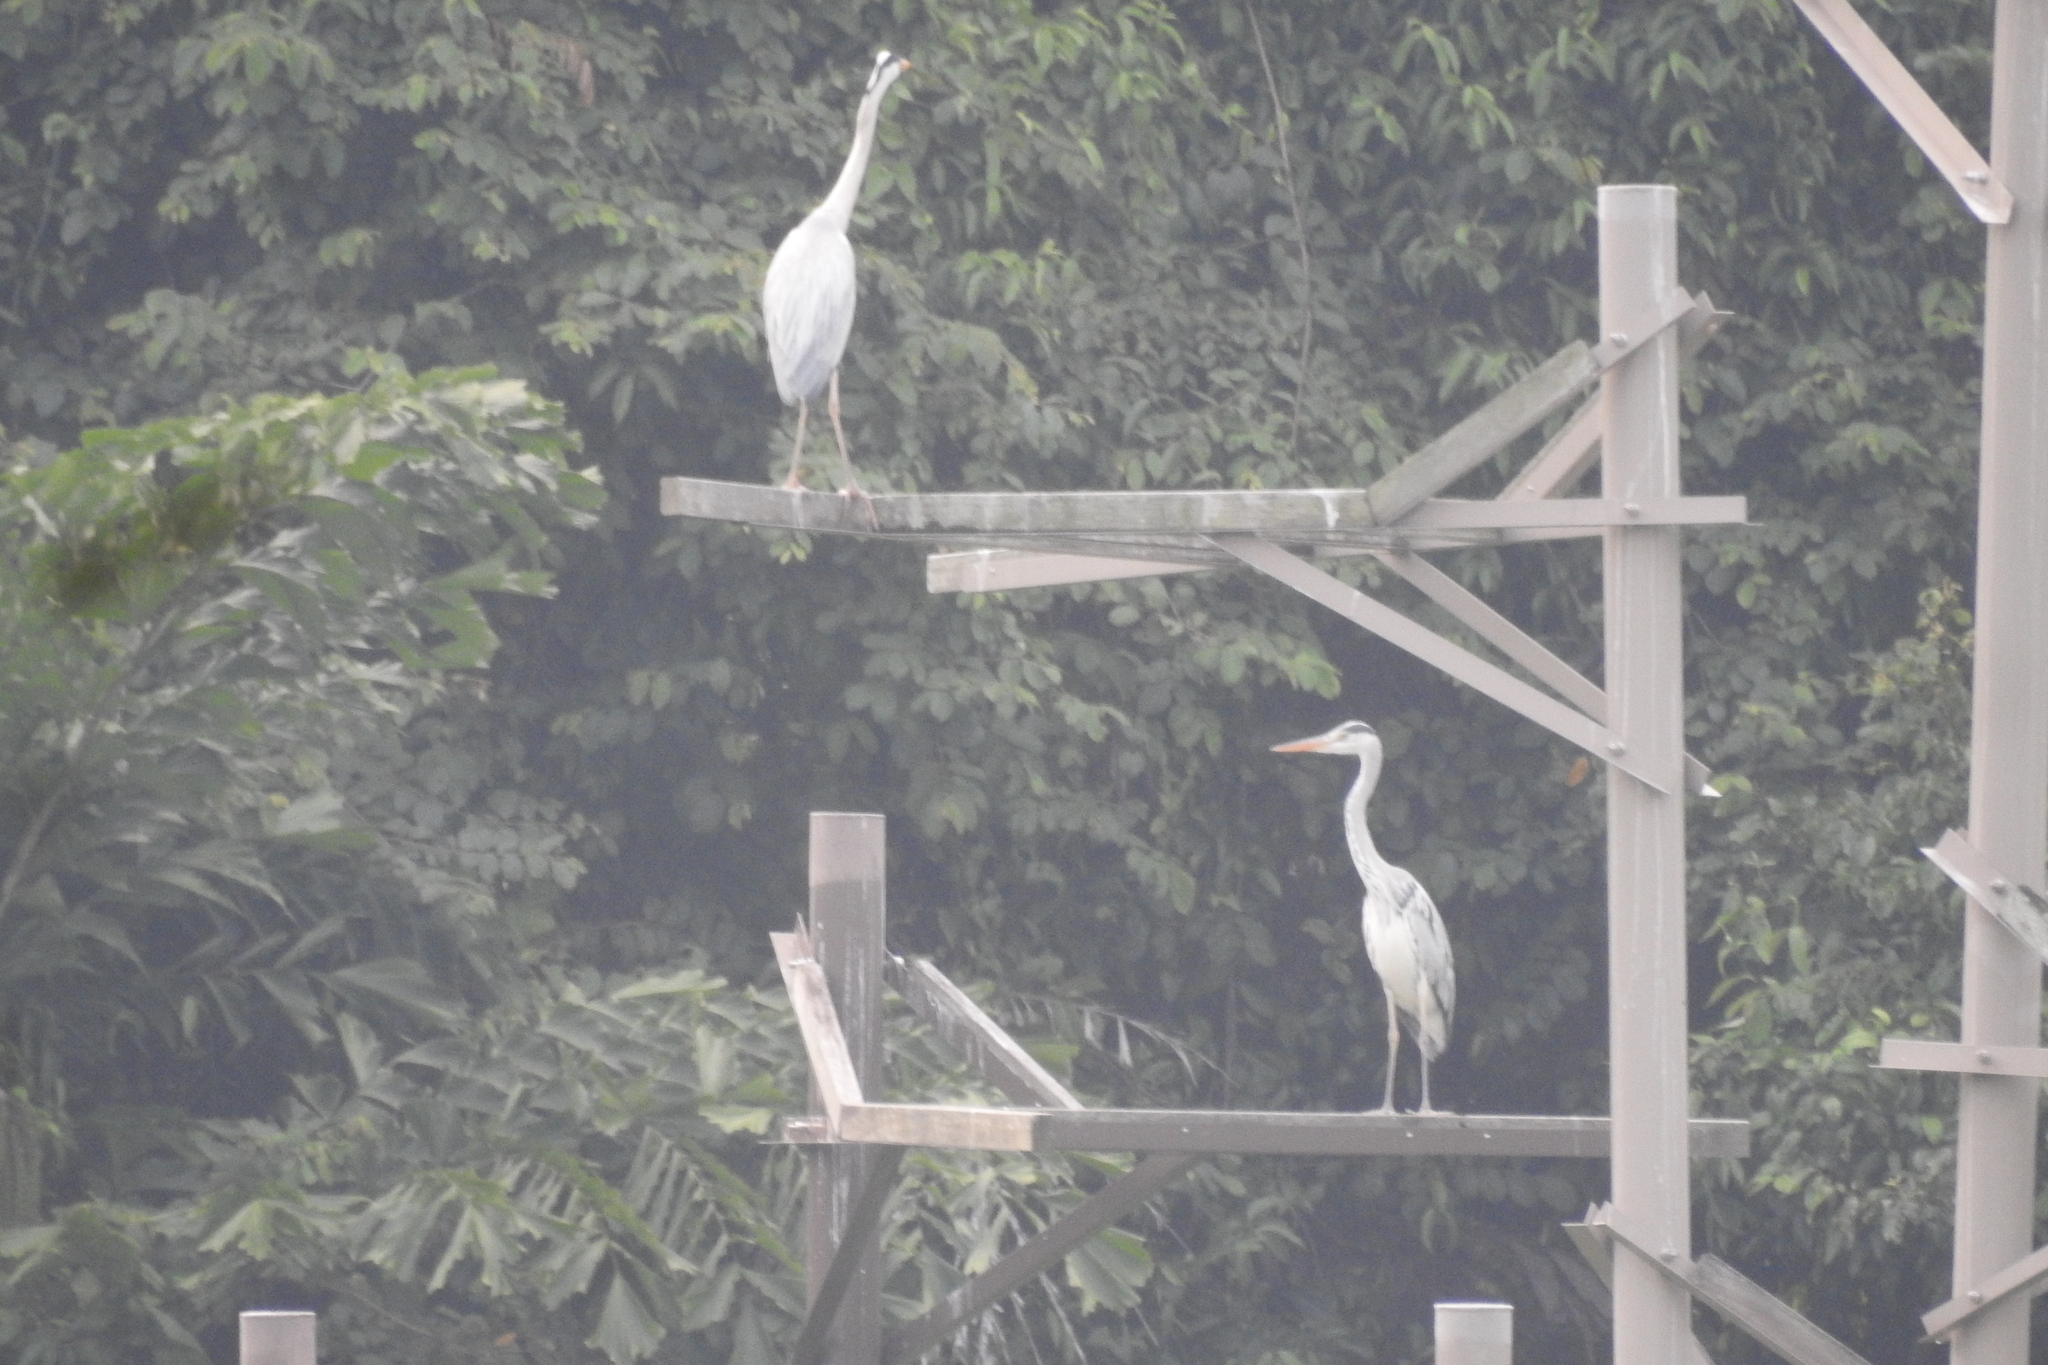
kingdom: Animalia
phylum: Chordata
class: Aves
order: Pelecaniformes
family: Ardeidae
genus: Ardea
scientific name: Ardea cinerea
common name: Grey heron
